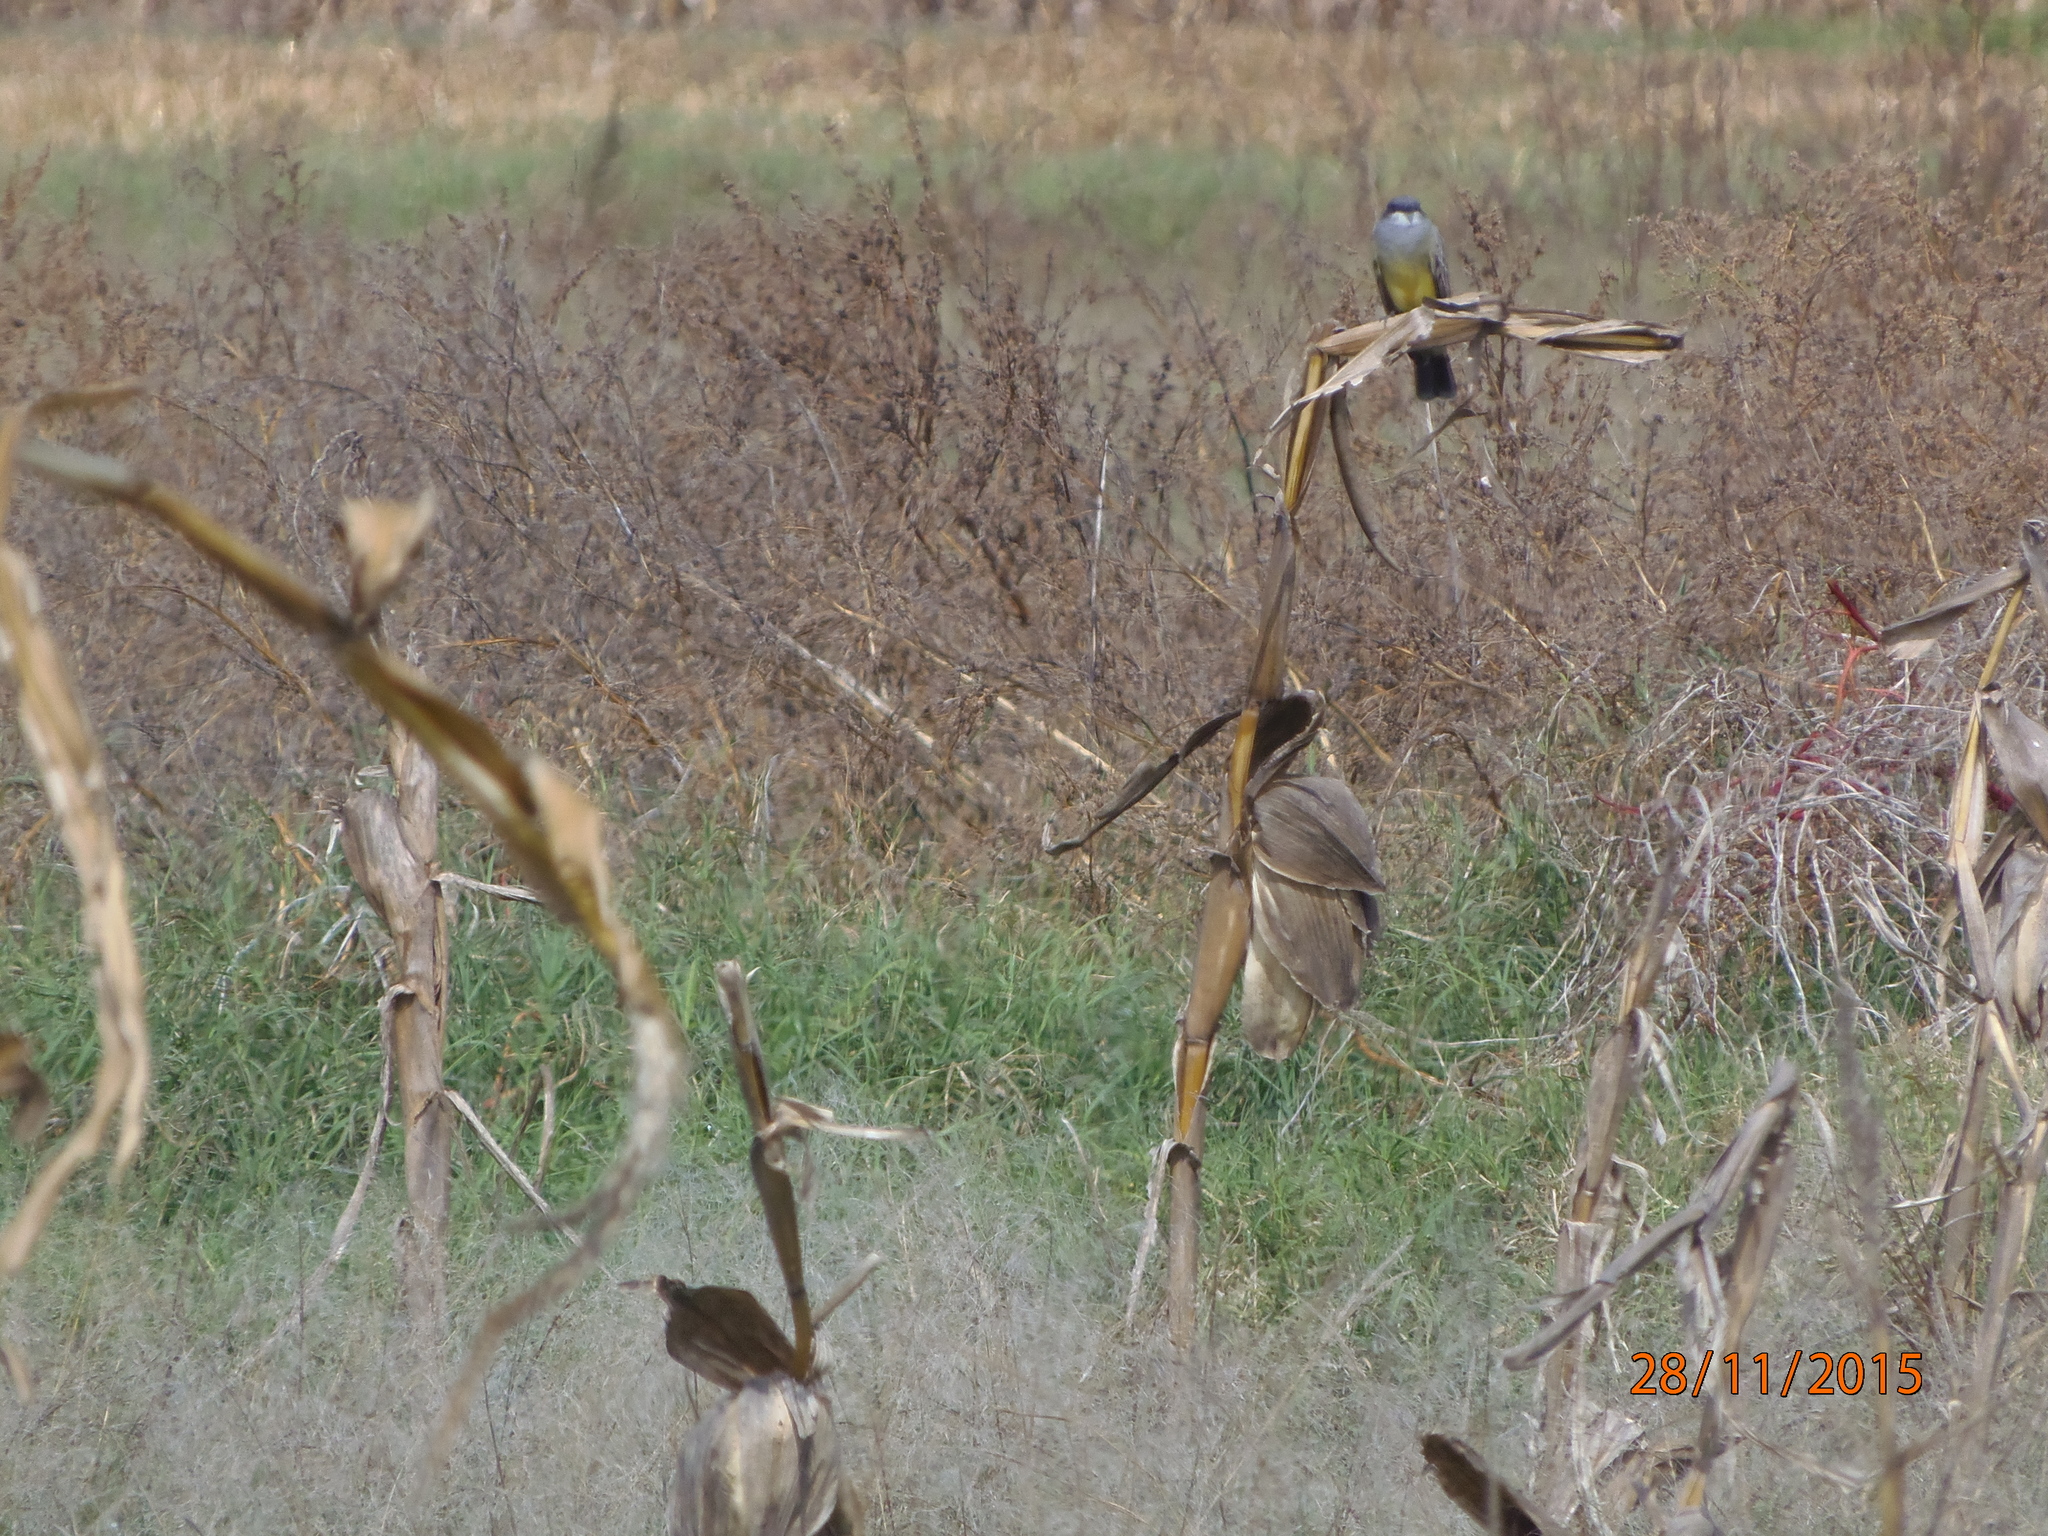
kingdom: Animalia
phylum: Chordata
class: Aves
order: Passeriformes
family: Tyrannidae
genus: Tyrannus
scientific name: Tyrannus vociferans
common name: Cassin's kingbird
